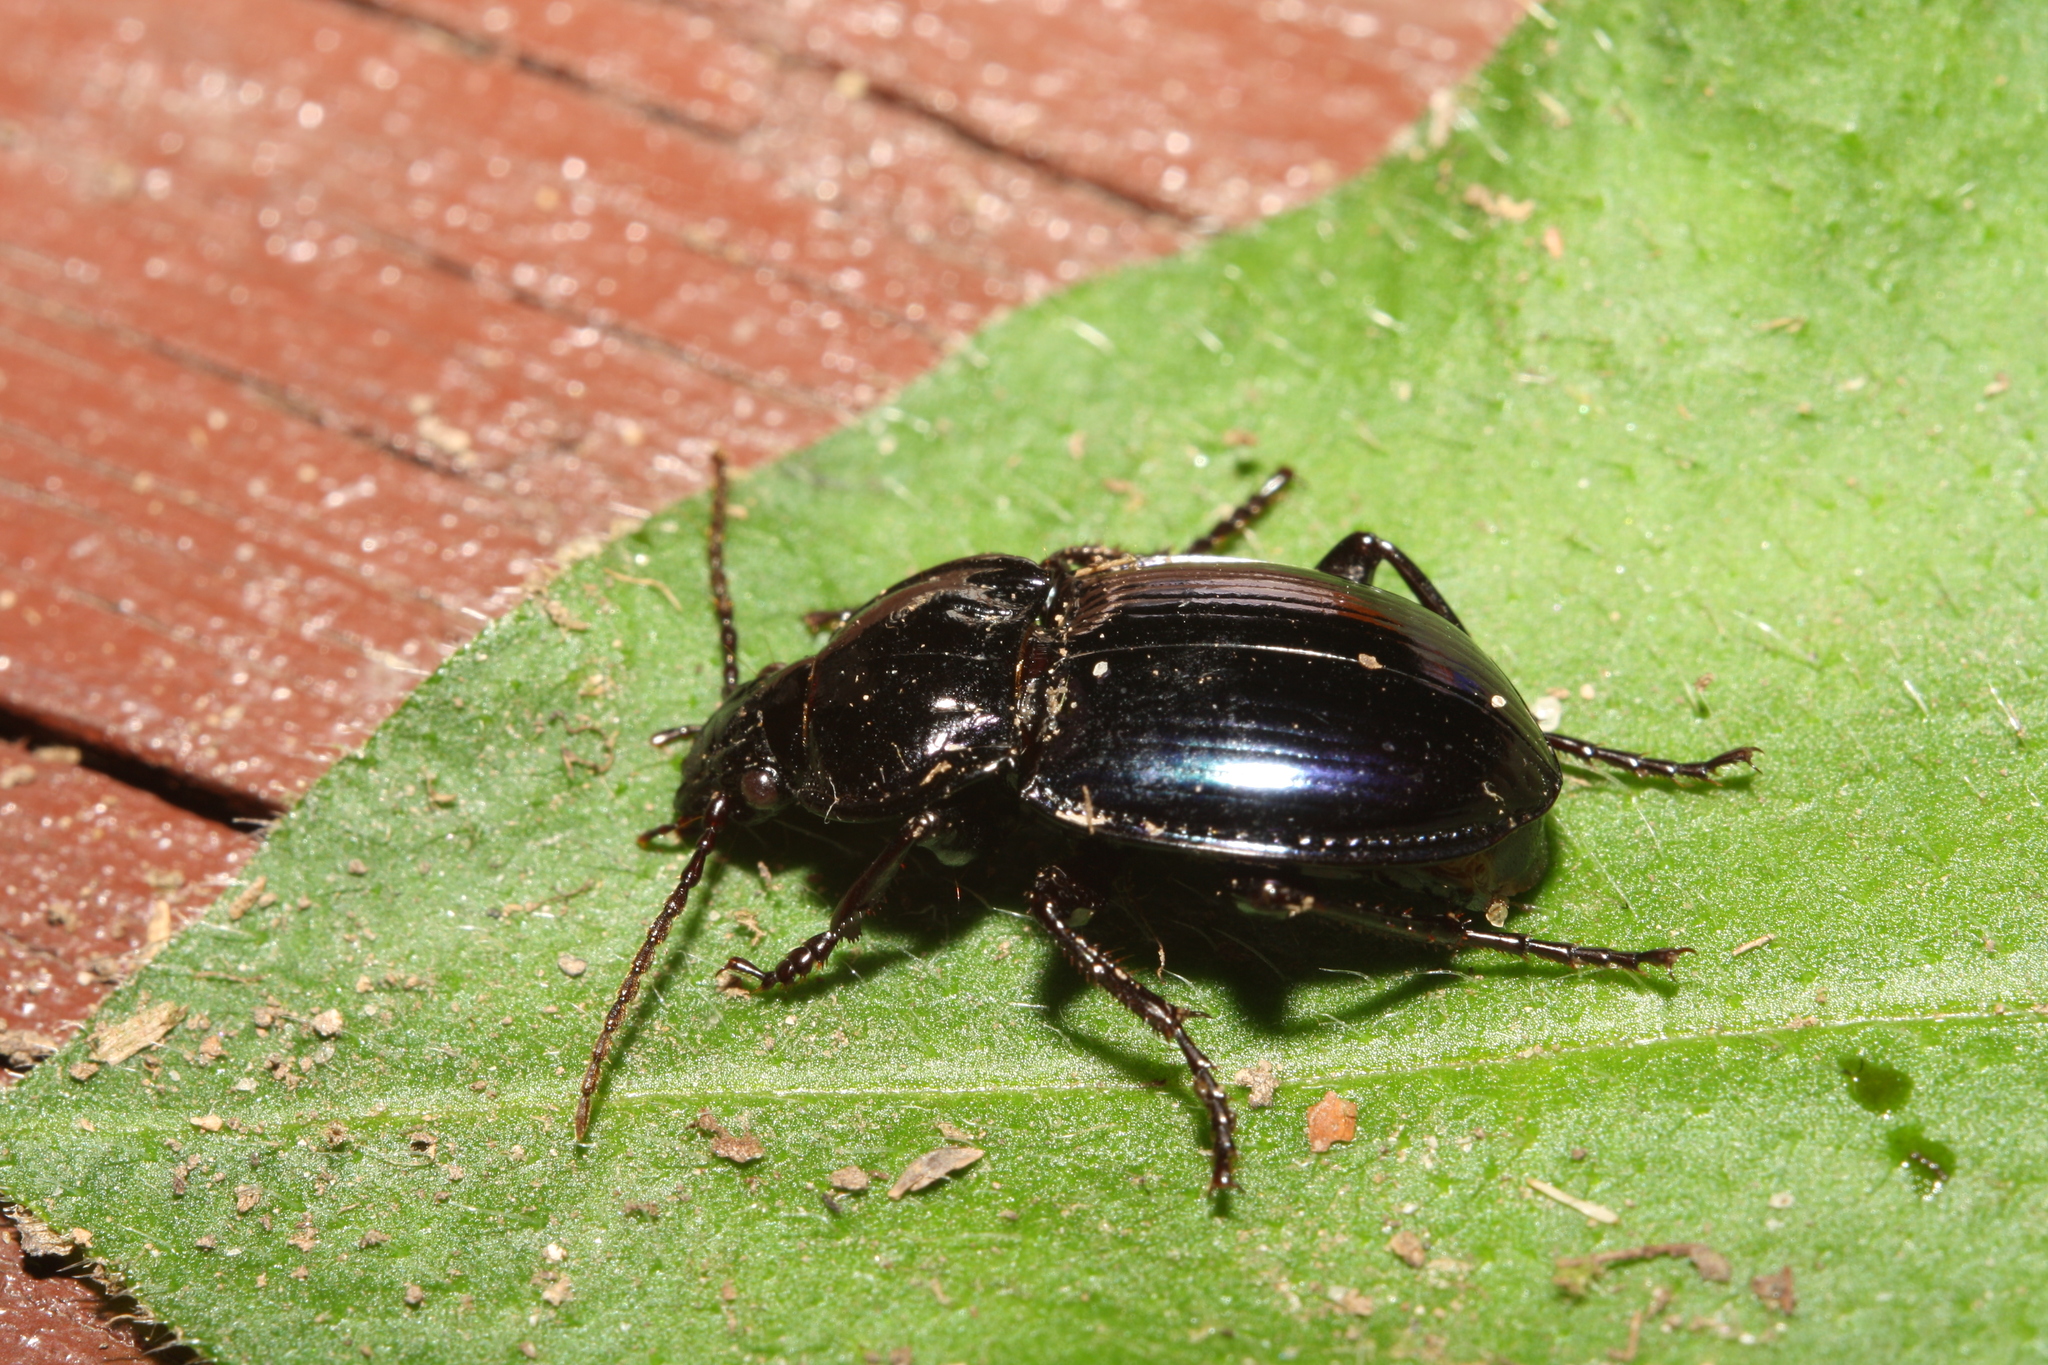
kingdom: Animalia
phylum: Arthropoda
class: Insecta
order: Coleoptera
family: Carabidae
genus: Myas
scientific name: Myas chalybaeus
